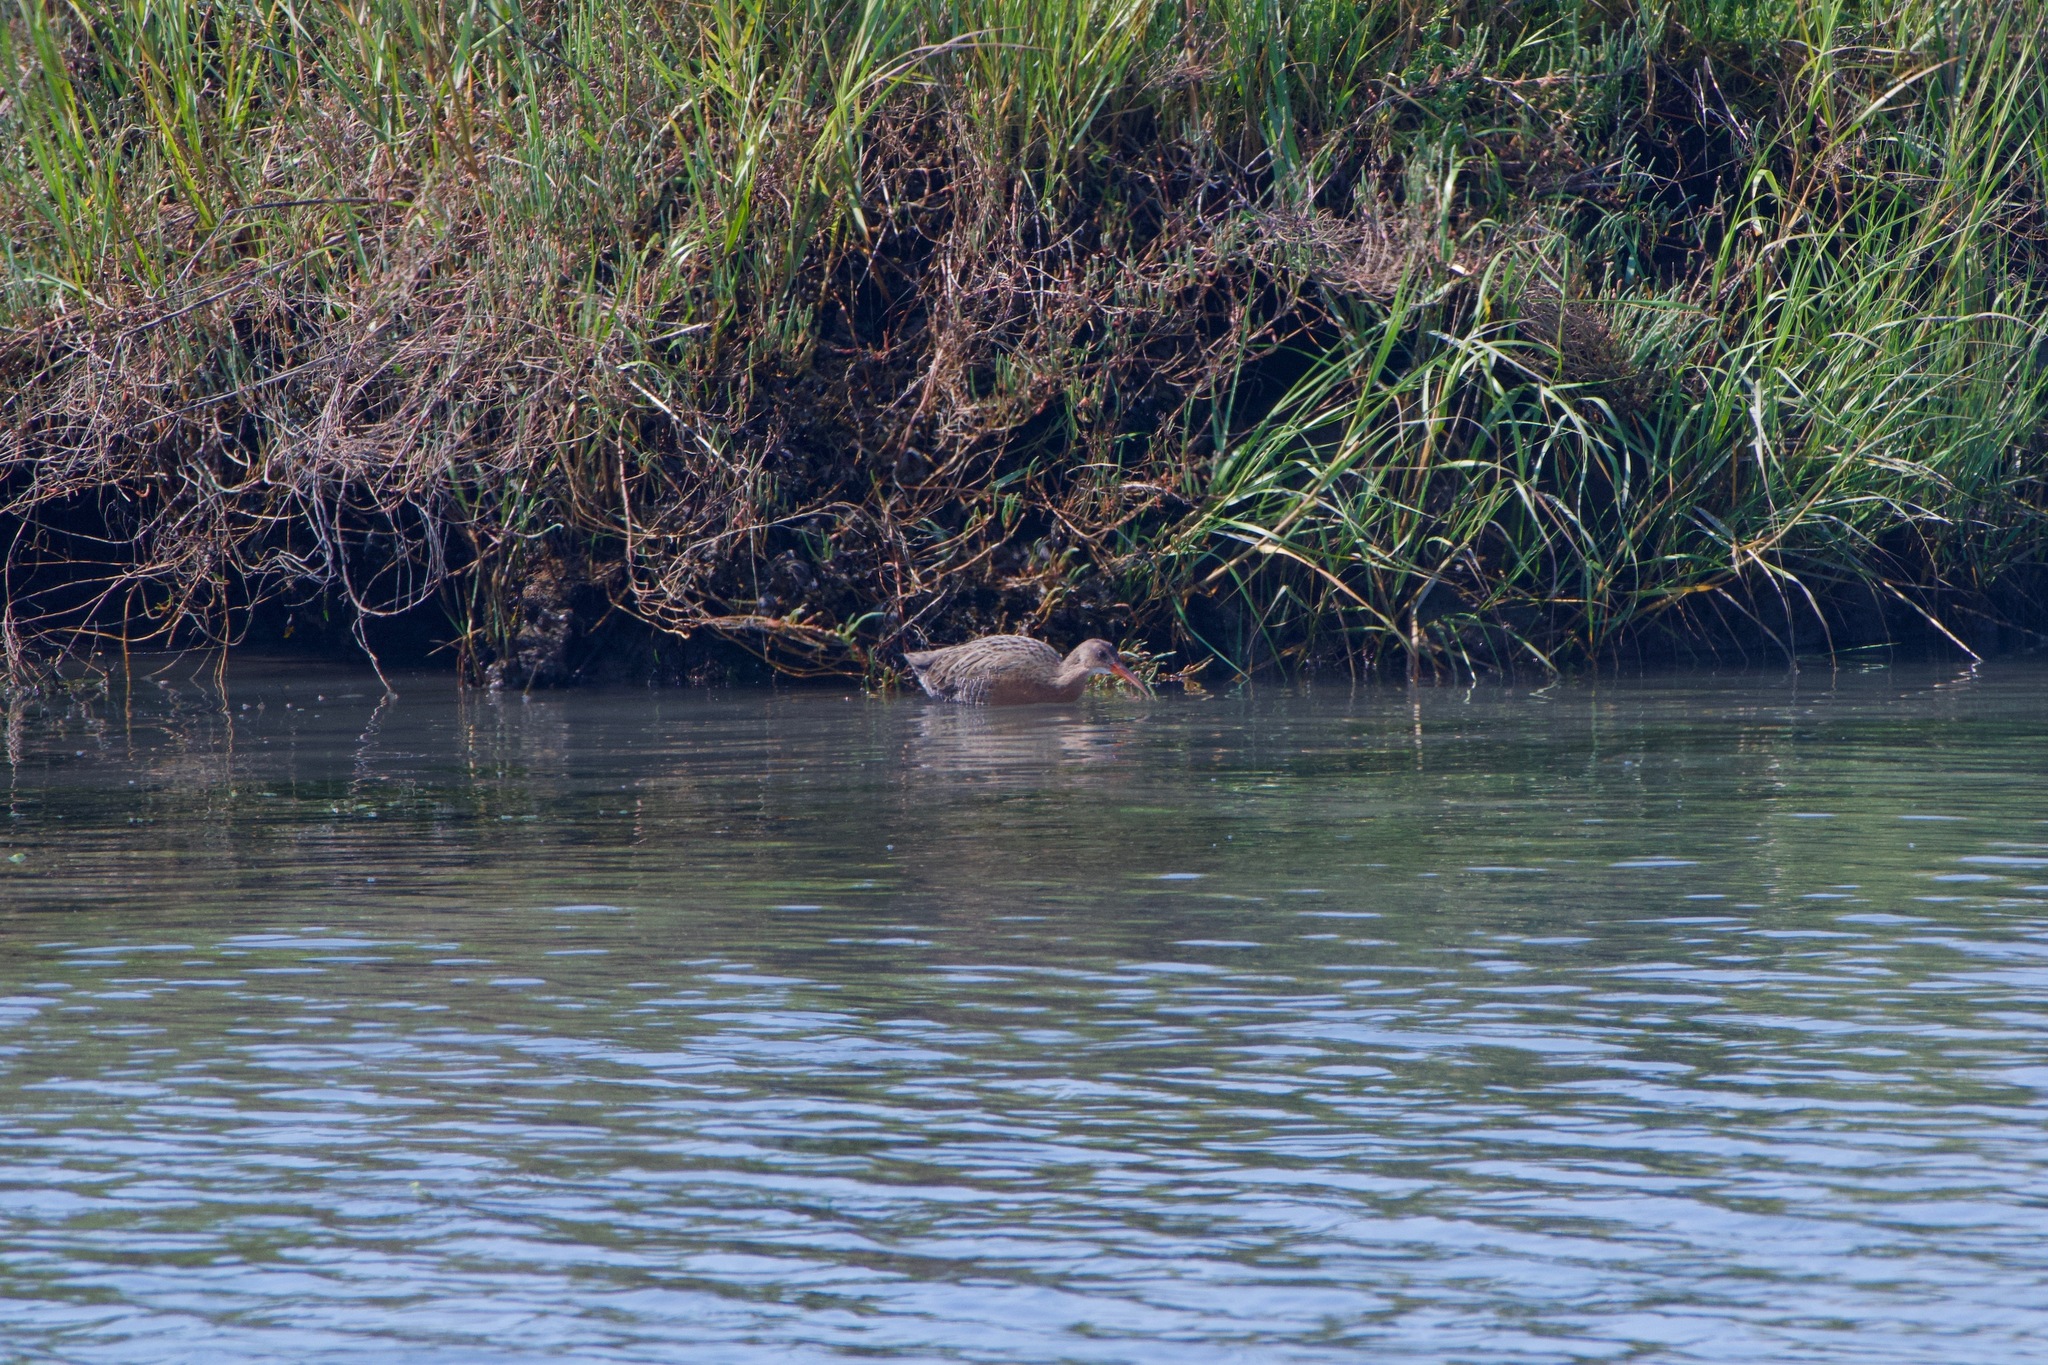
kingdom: Animalia
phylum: Chordata
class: Aves
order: Gruiformes
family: Rallidae
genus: Rallus
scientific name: Rallus obsoletus
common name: Ridgway's rail
